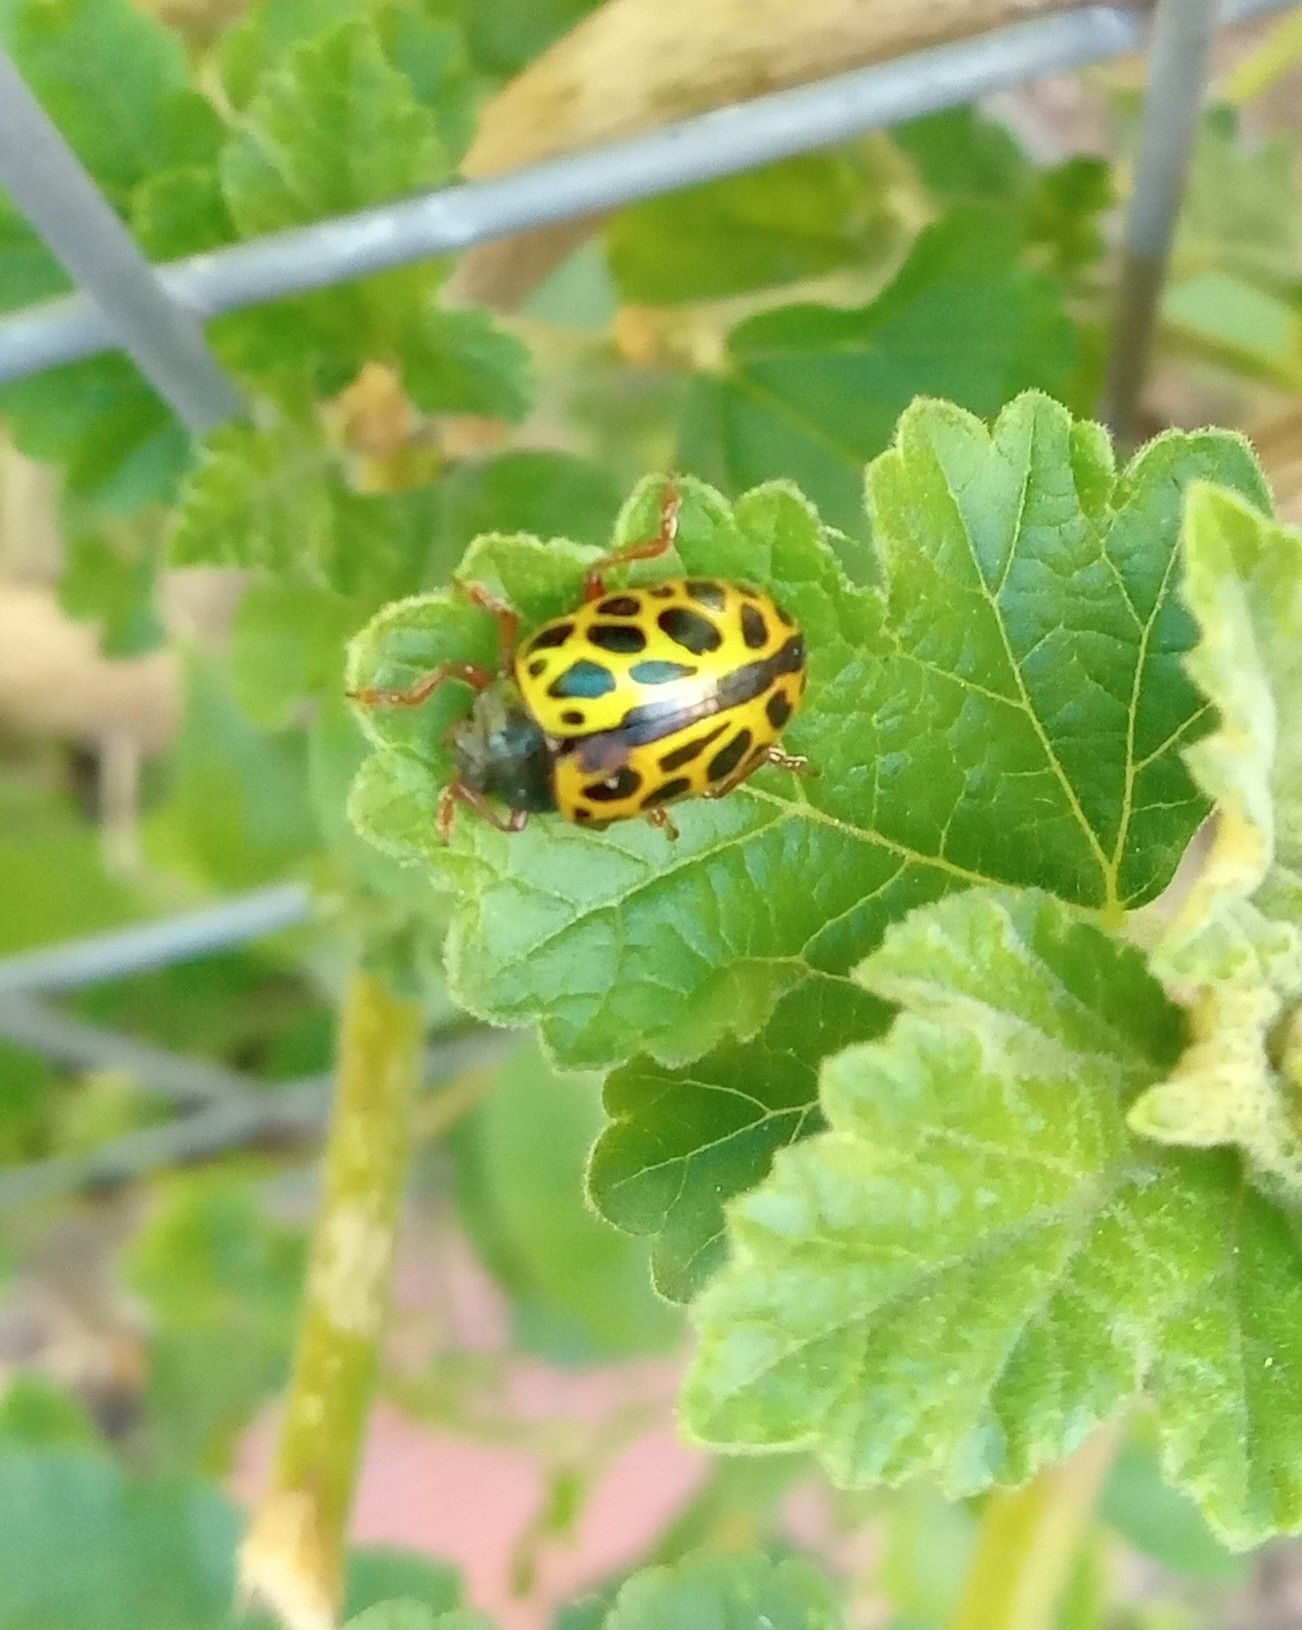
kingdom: Animalia
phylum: Arthropoda
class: Insecta
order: Coleoptera
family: Chrysomelidae
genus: Calligrapha
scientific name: Calligrapha polyspila
